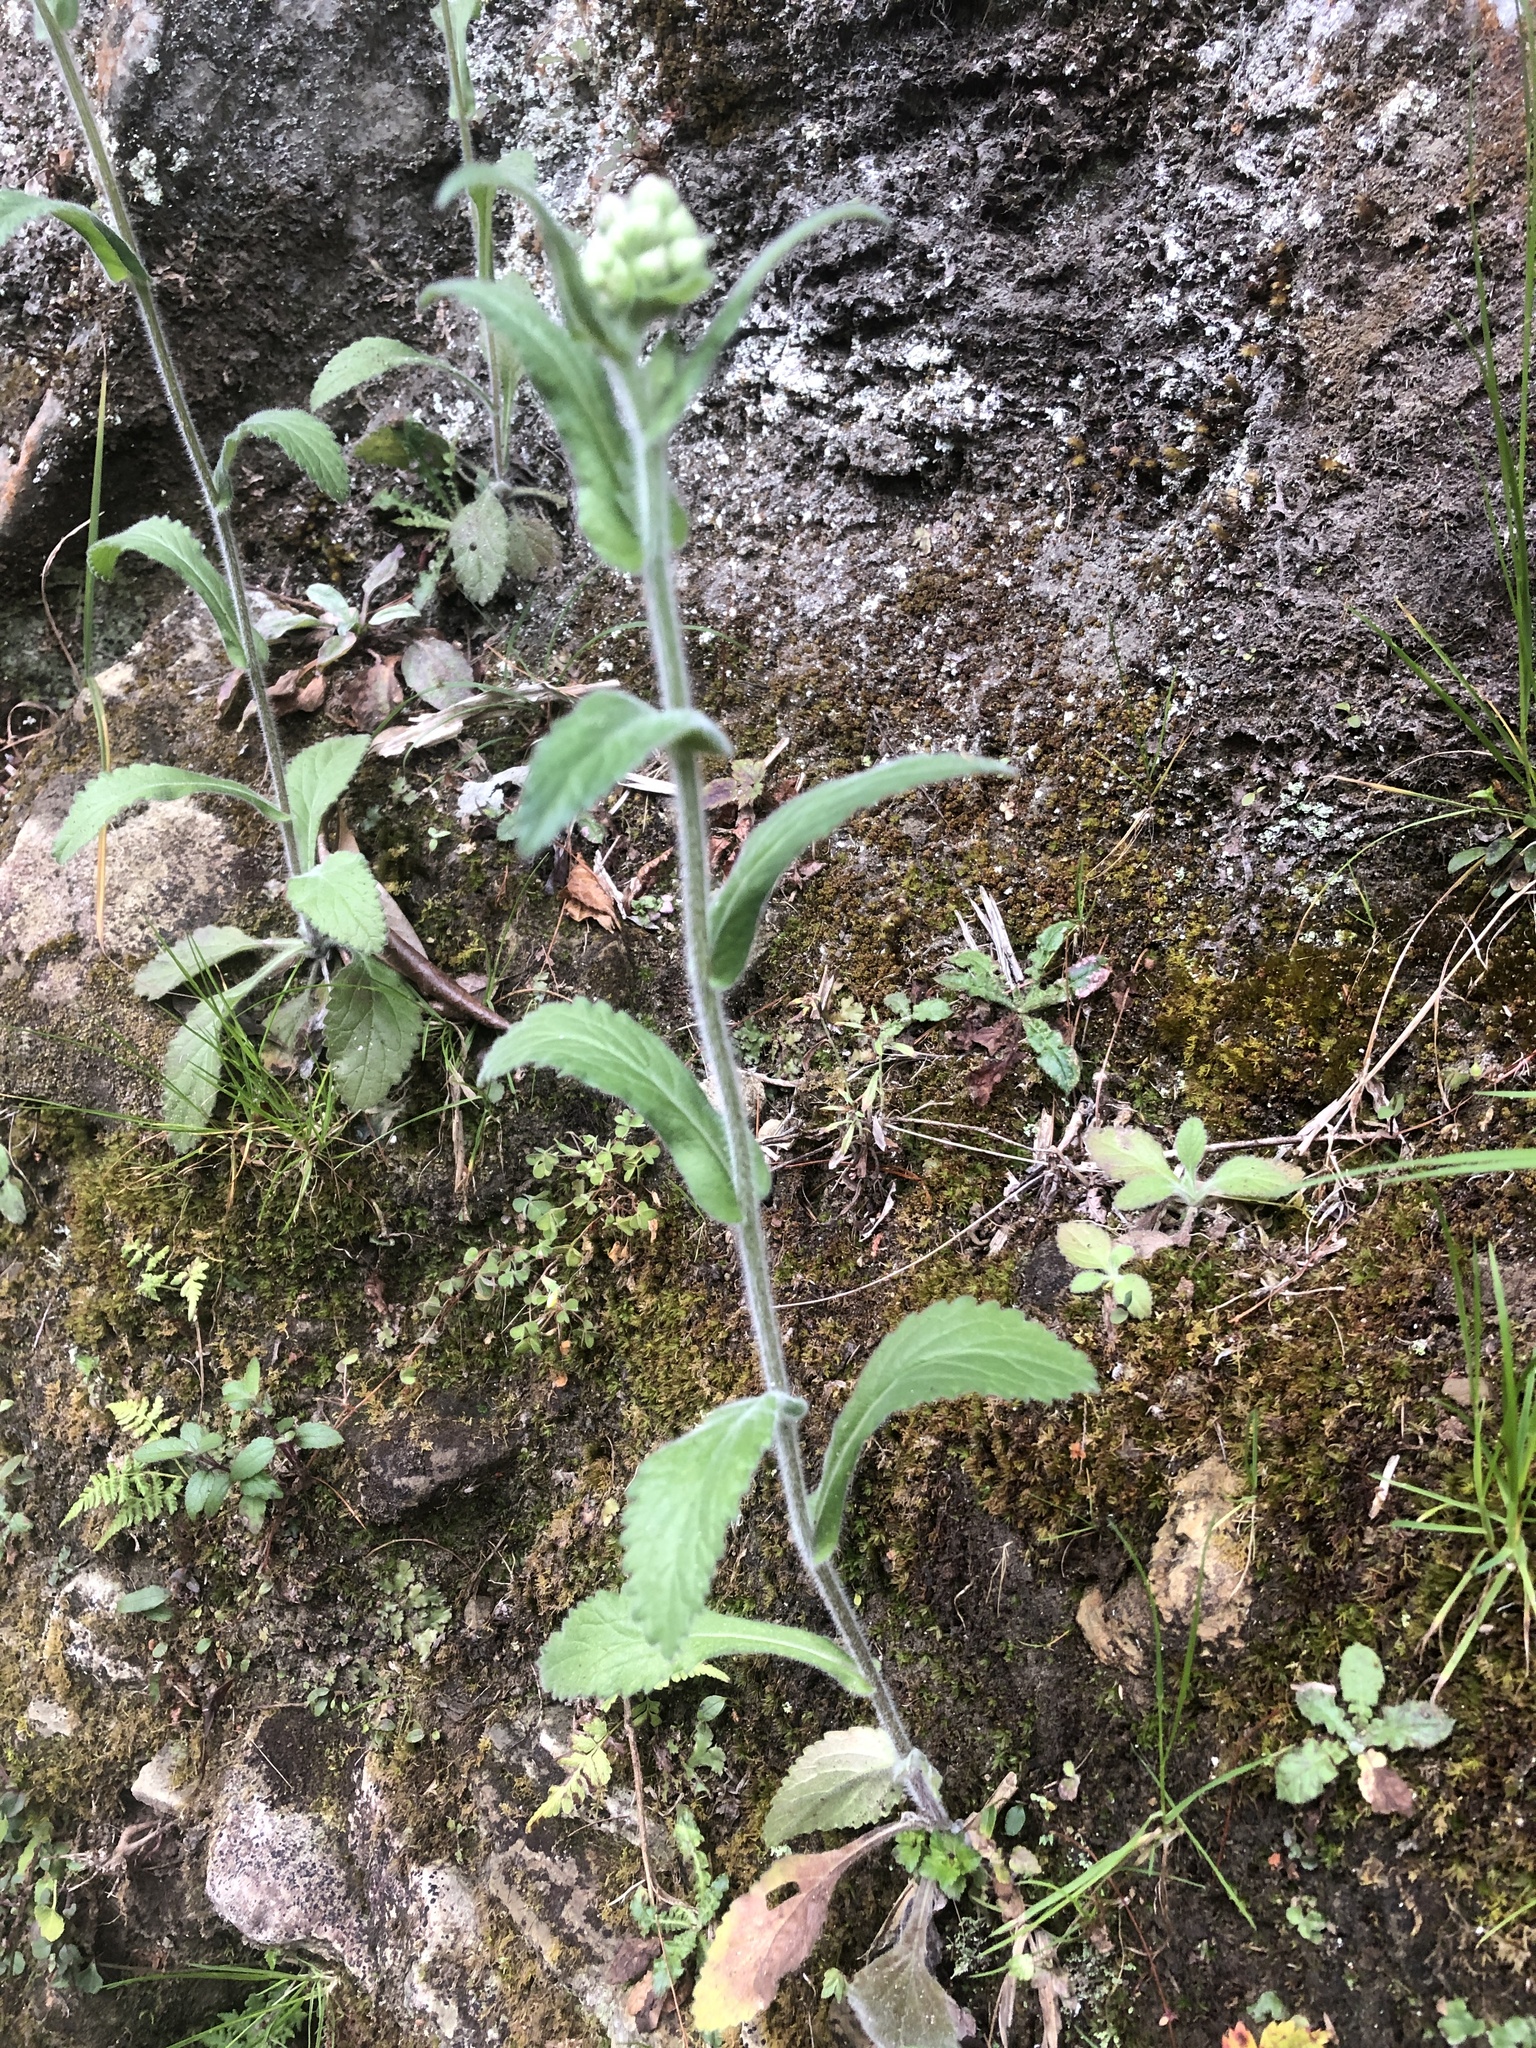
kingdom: Plantae
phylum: Tracheophyta
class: Magnoliopsida
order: Asterales
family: Asteraceae
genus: Eschenbachia
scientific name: Eschenbachia japonica
